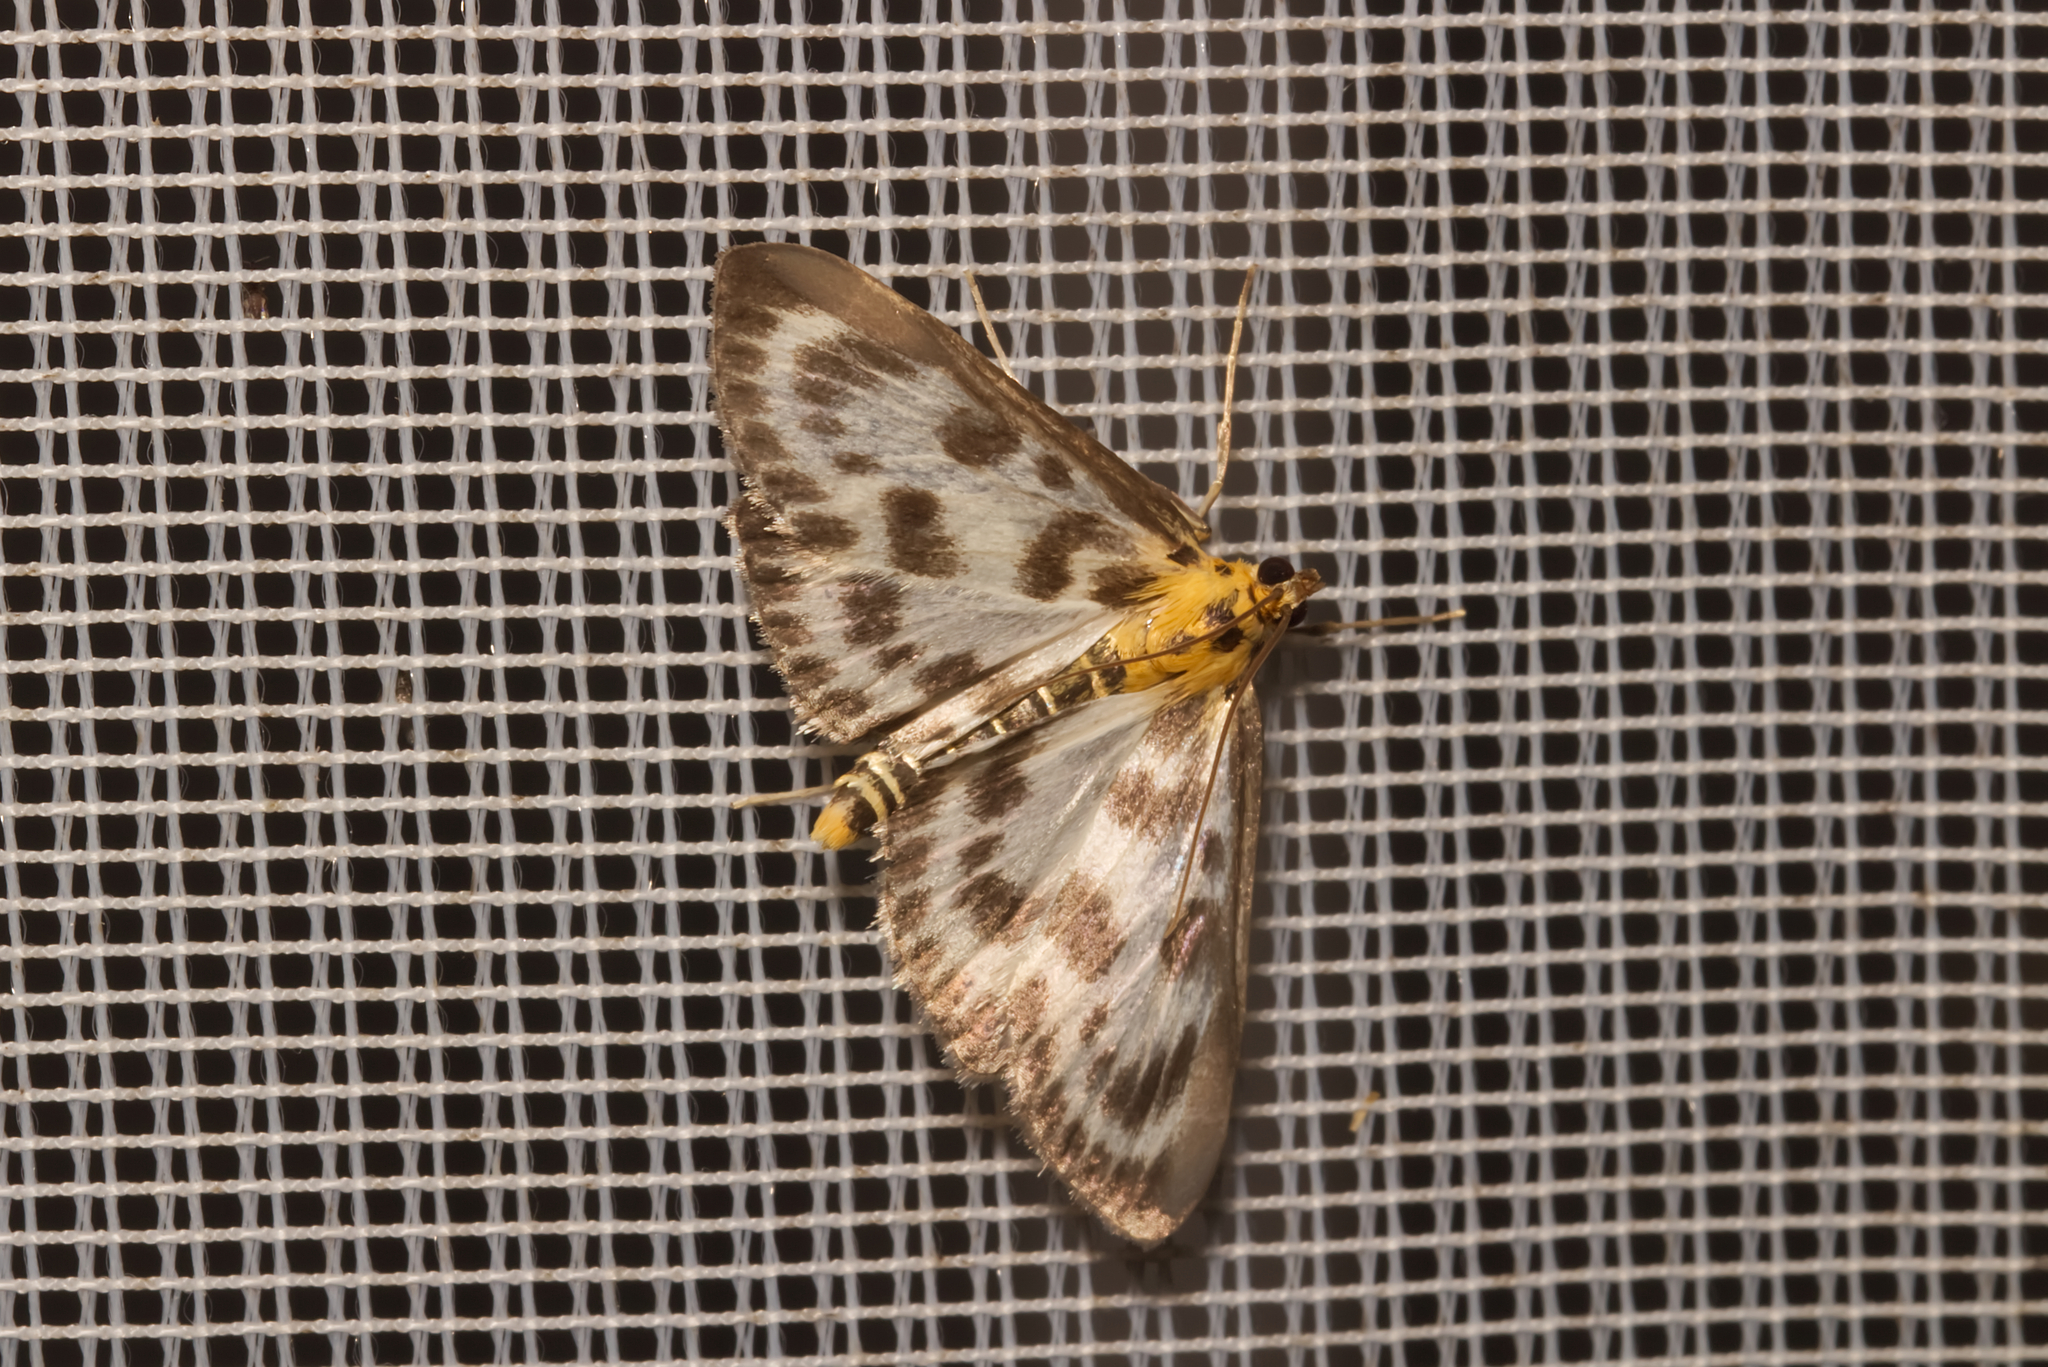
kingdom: Animalia
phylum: Arthropoda
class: Insecta
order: Lepidoptera
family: Crambidae
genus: Anania
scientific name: Anania hortulata
